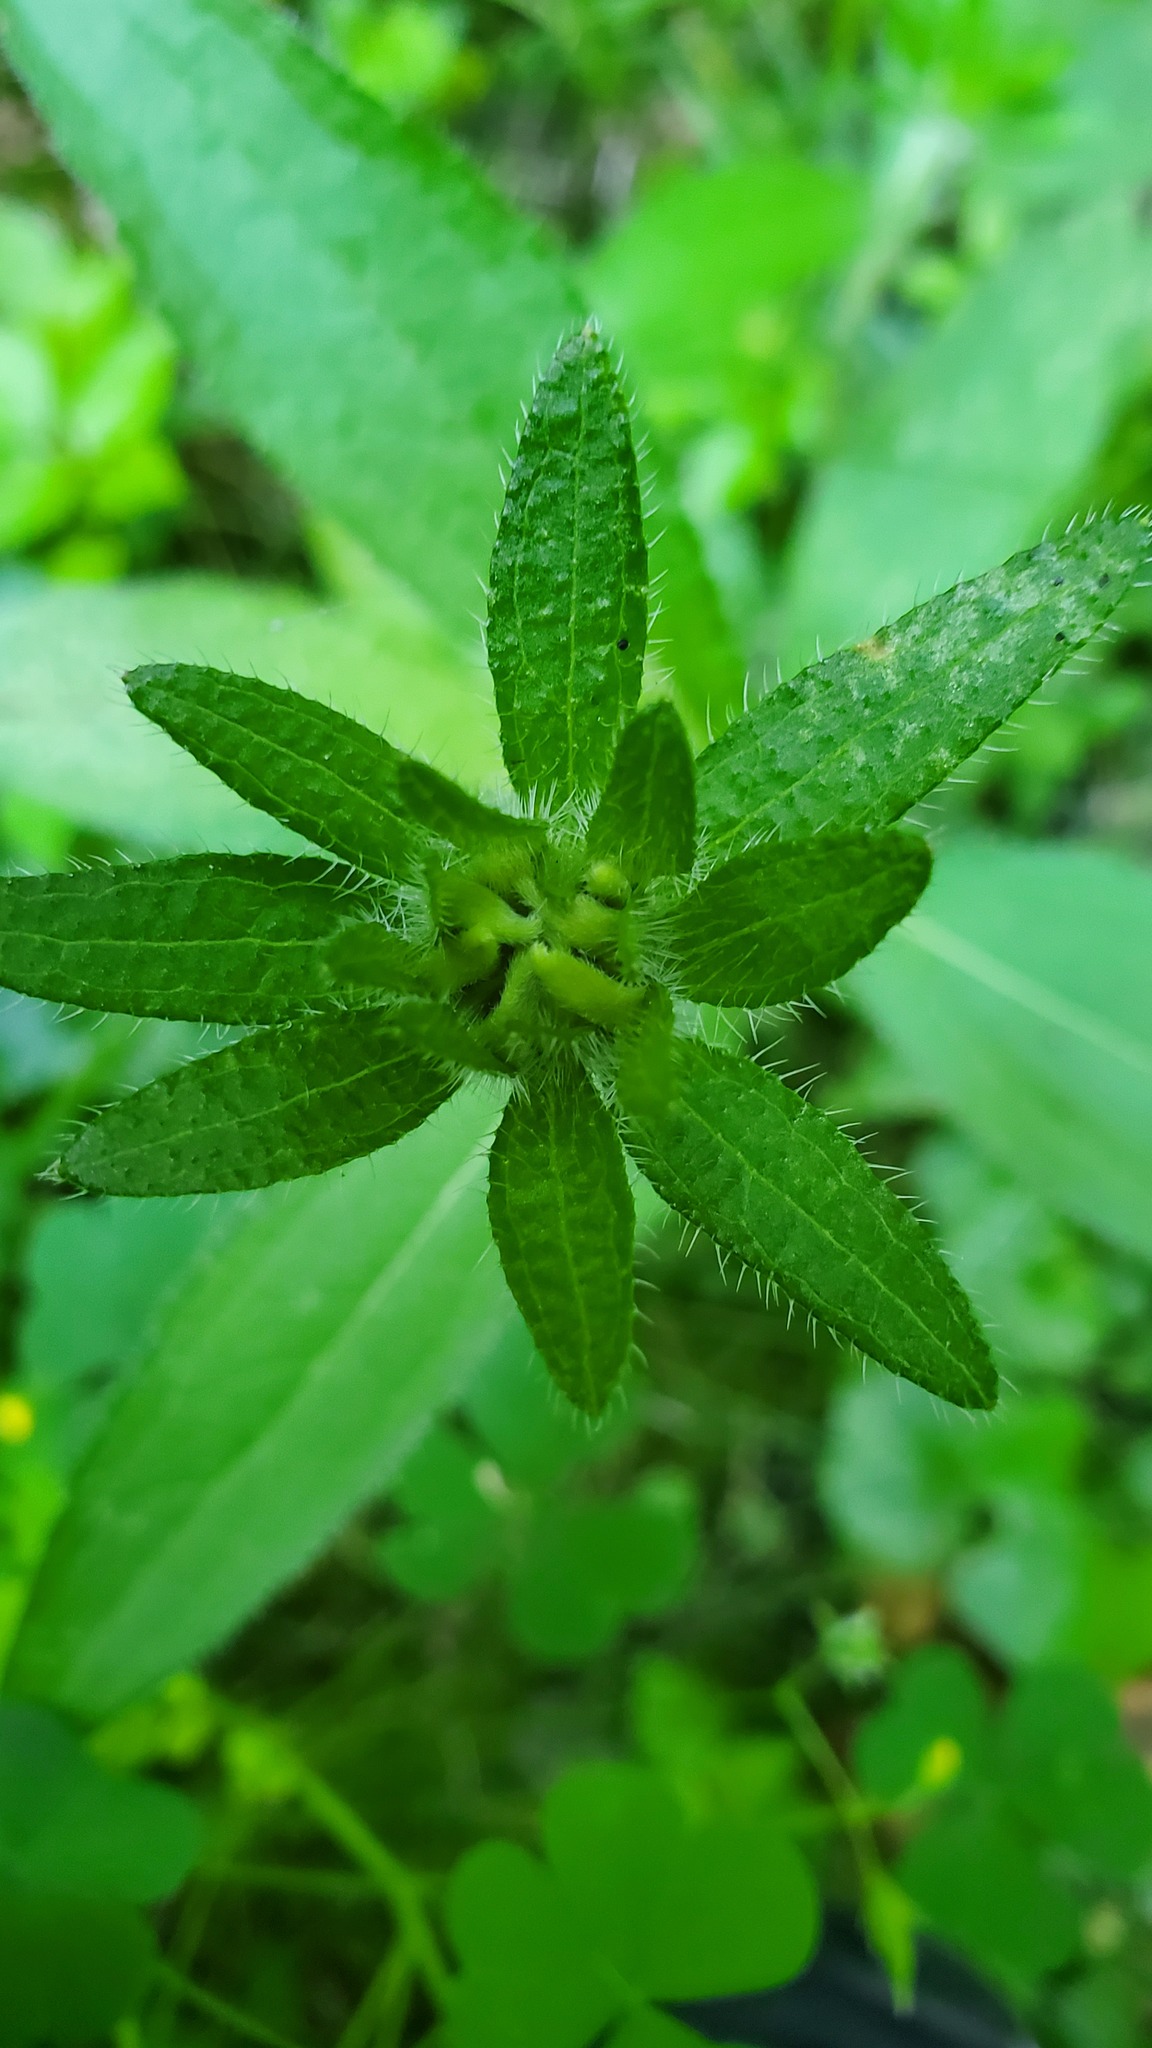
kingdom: Plantae
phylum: Tracheophyta
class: Magnoliopsida
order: Asterales
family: Asteraceae
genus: Rudbeckia
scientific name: Rudbeckia hirta
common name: Black-eyed-susan
